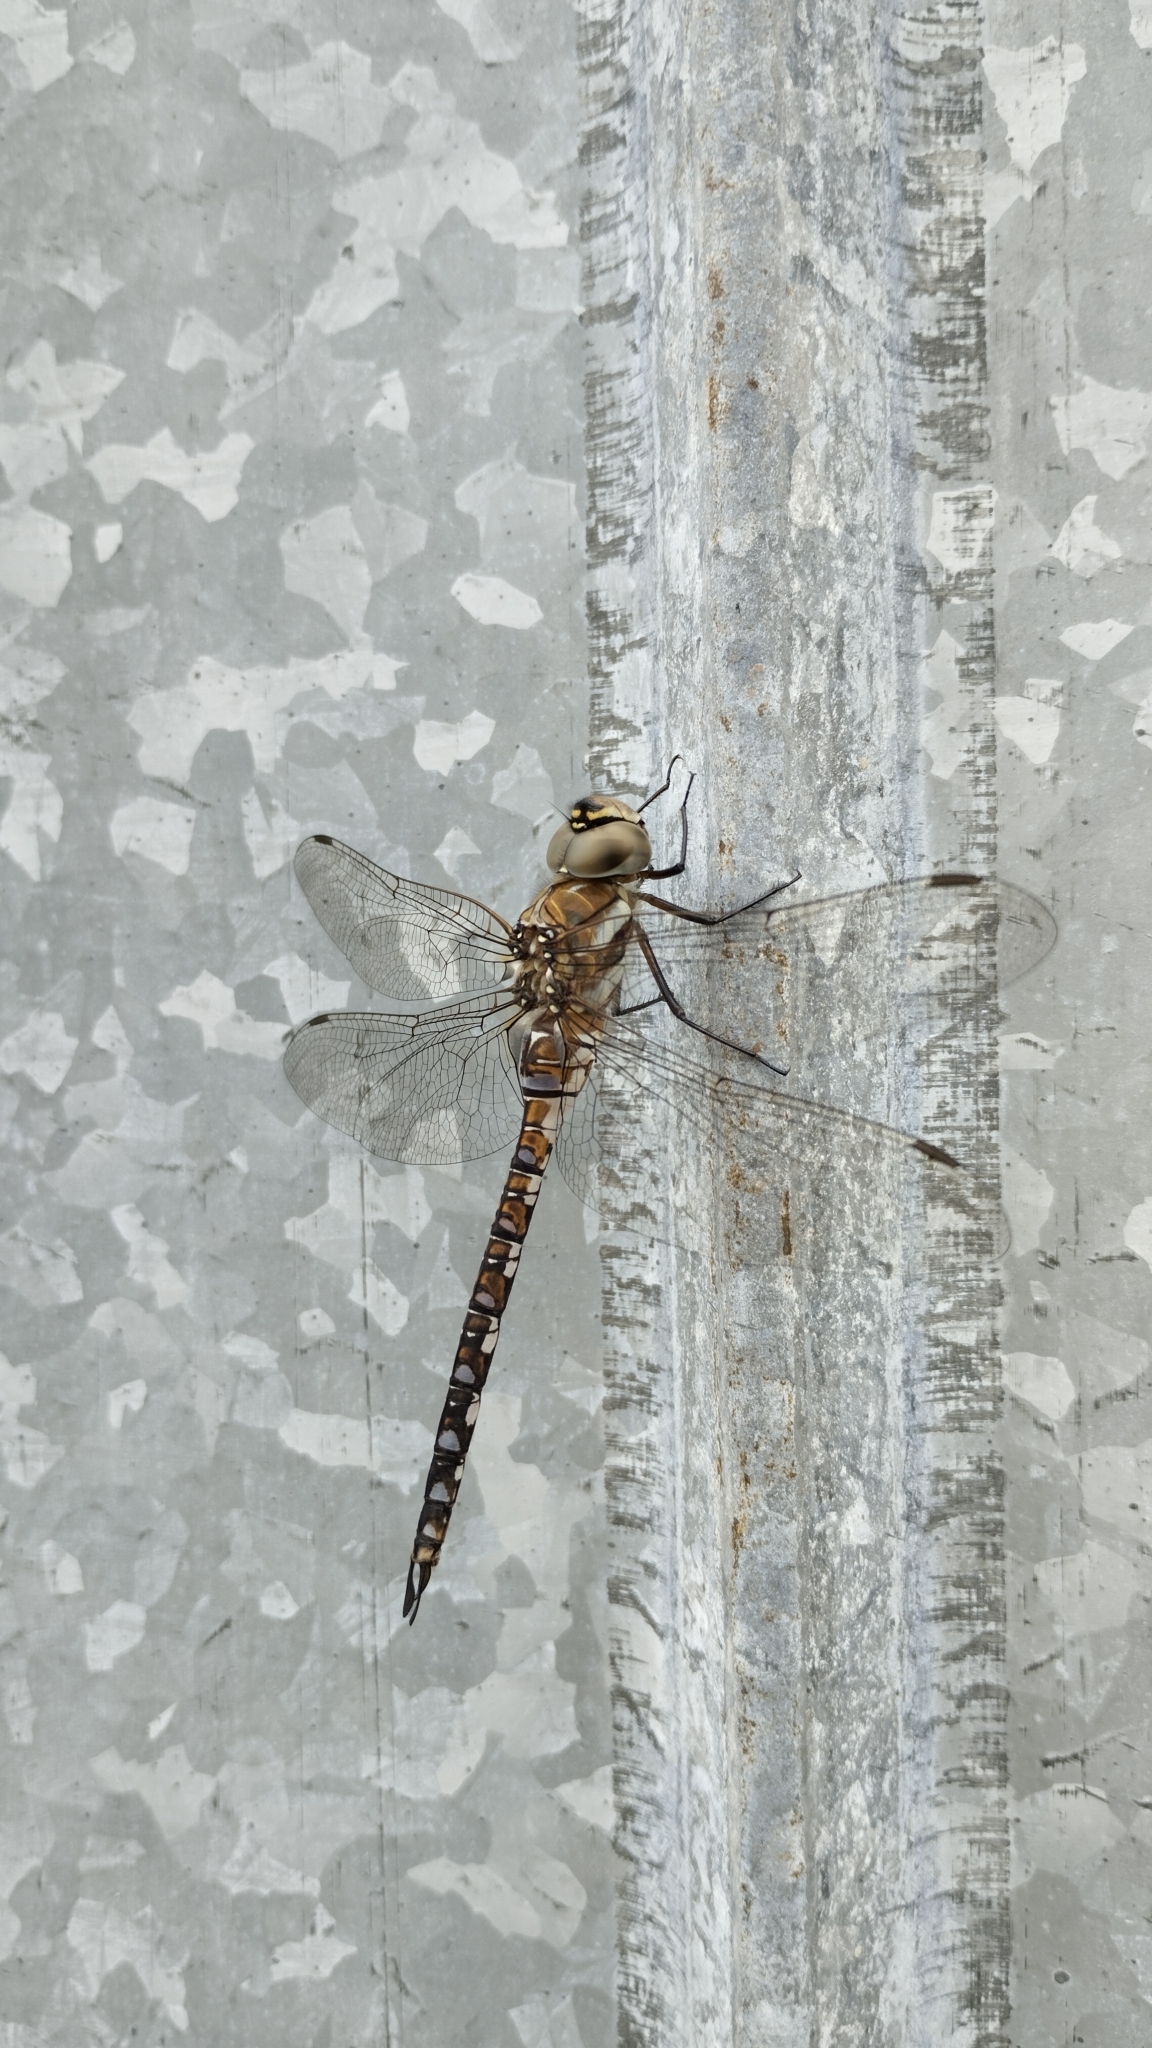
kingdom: Animalia
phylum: Arthropoda
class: Insecta
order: Odonata
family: Aeshnidae
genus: Aeshna
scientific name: Aeshna mixta
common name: Migrant hawker
